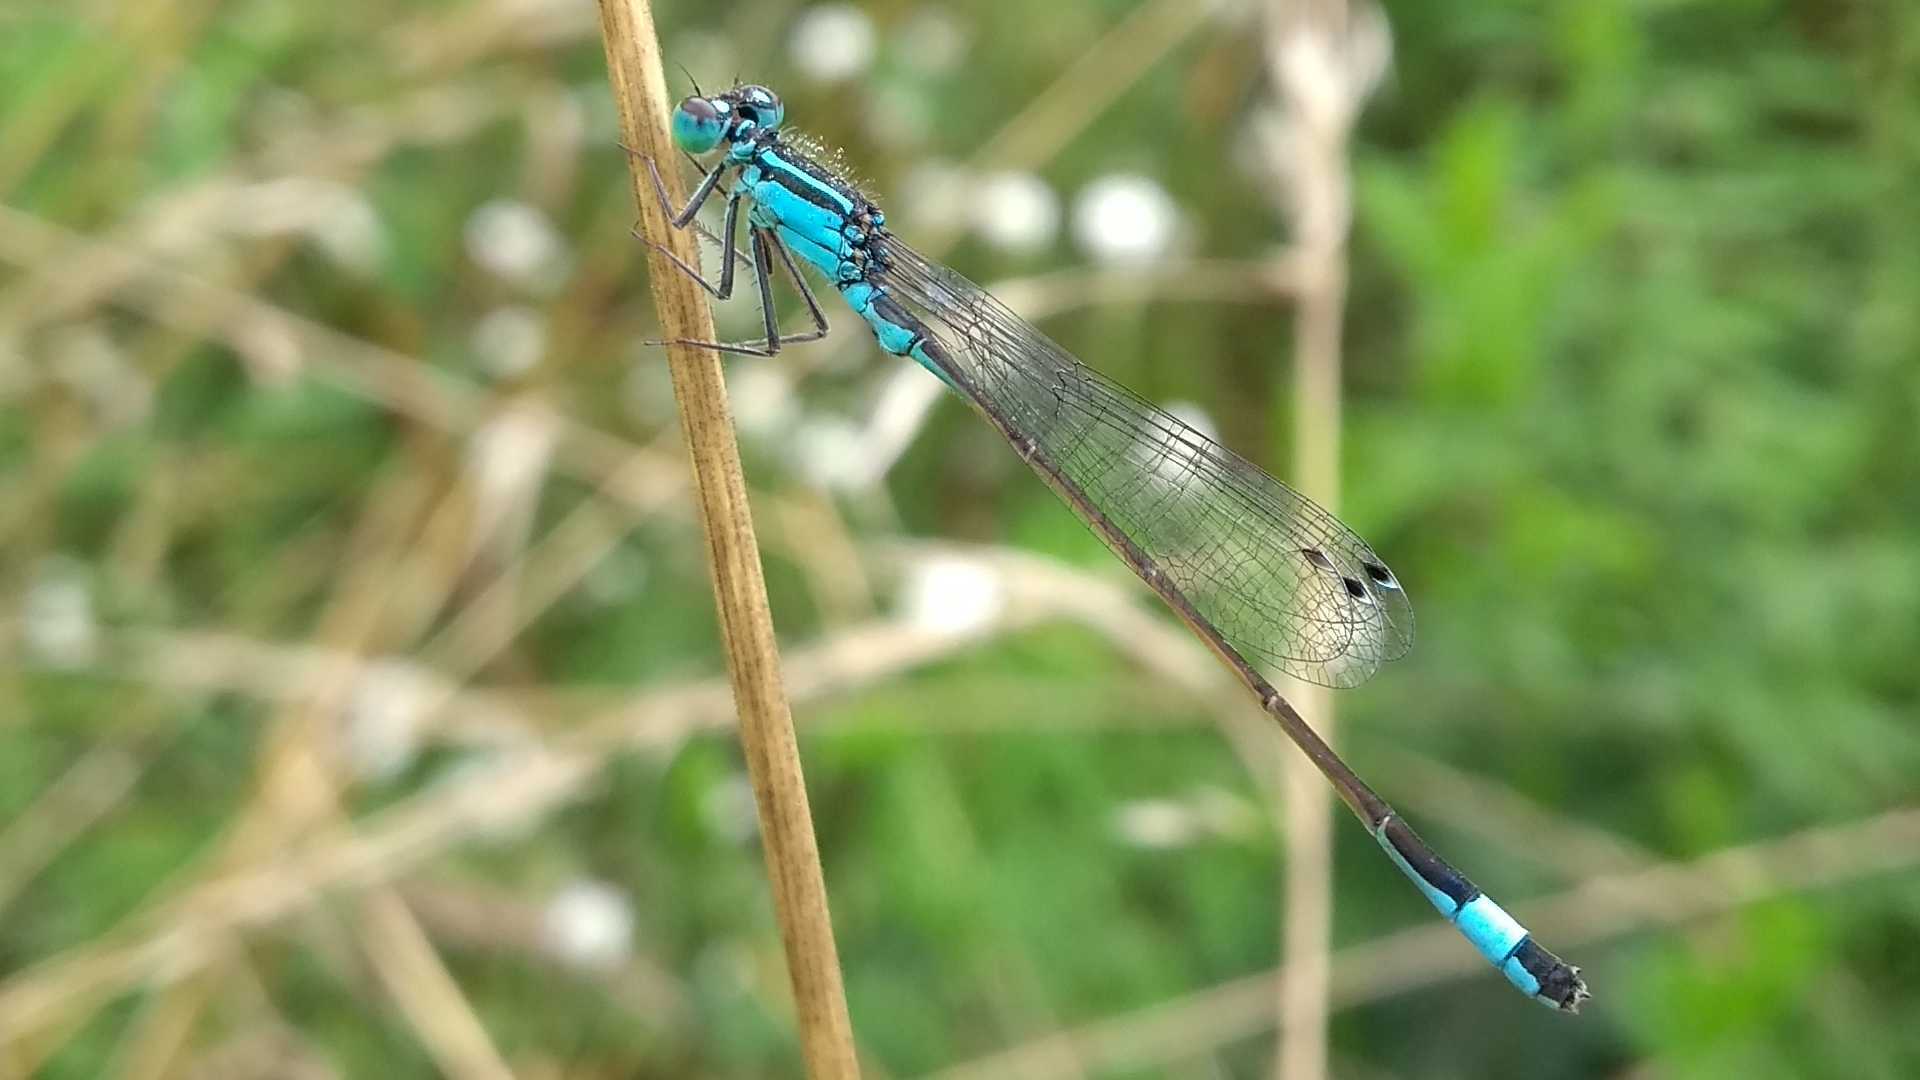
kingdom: Animalia
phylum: Arthropoda
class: Insecta
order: Odonata
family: Coenagrionidae
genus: Ischnura
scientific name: Ischnura elegans
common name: Blue-tailed damselfly
